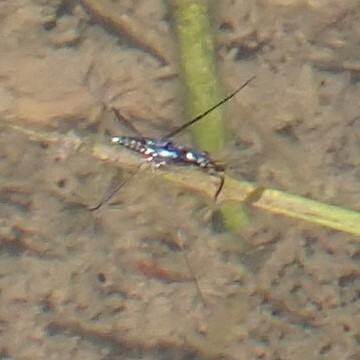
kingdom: Animalia
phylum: Arthropoda
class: Insecta
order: Hemiptera
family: Gerridae
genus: Gerris
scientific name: Gerris
